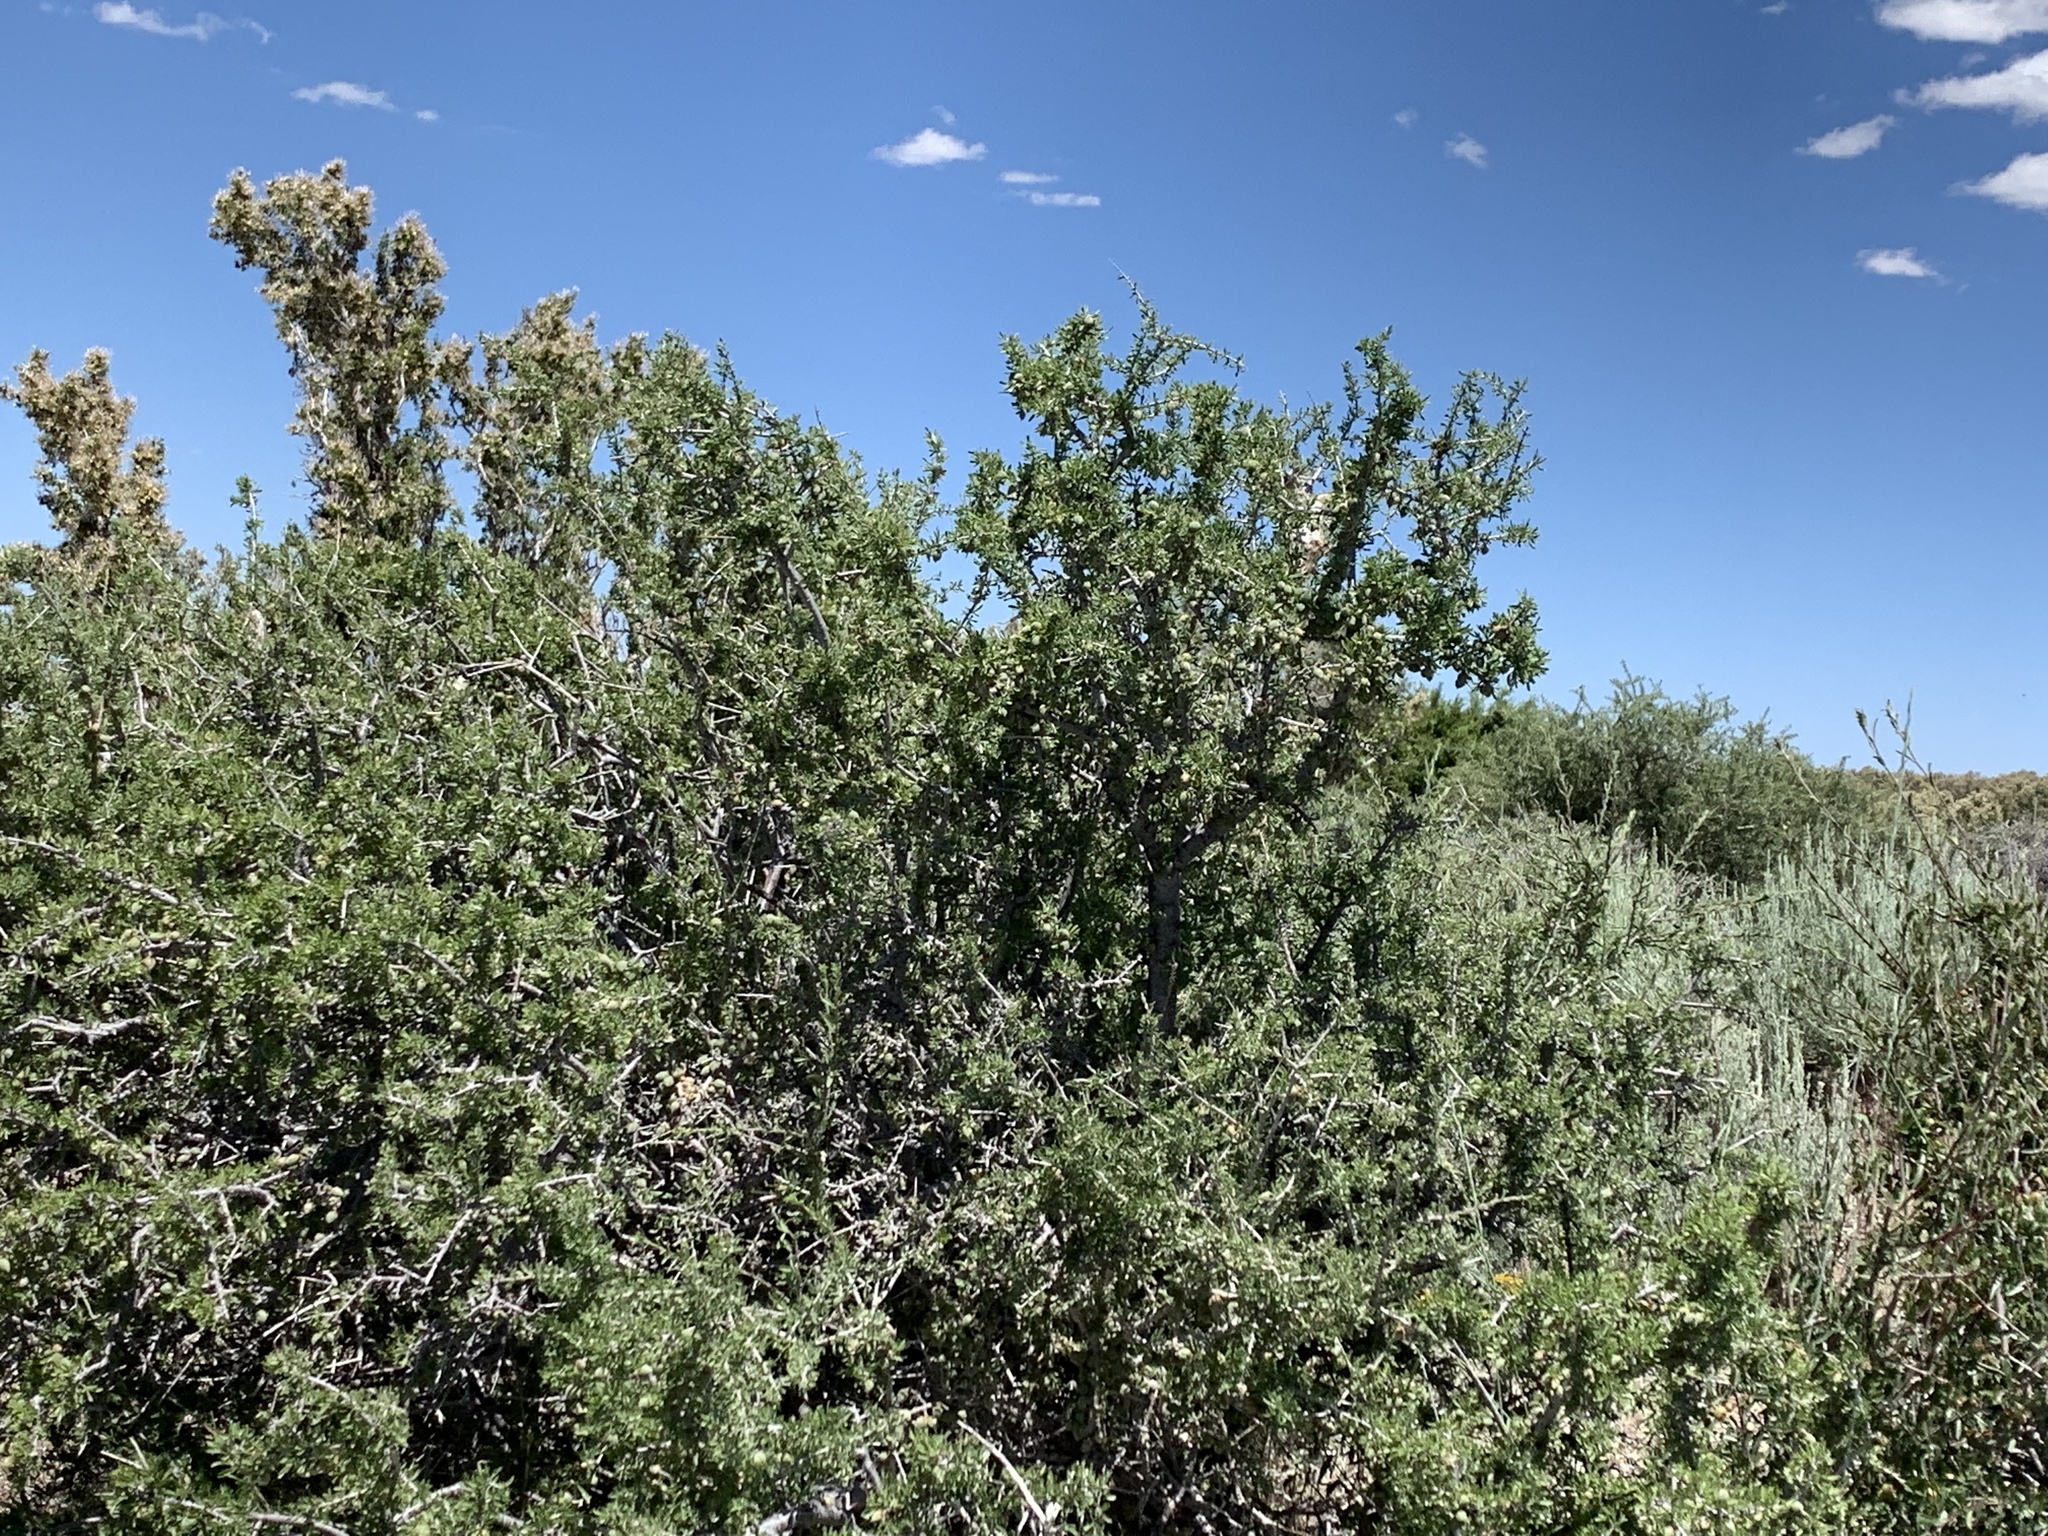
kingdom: Plantae
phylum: Tracheophyta
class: Magnoliopsida
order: Rosales
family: Rosaceae
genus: Prunus
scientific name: Prunus fasciculata
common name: Desert almond
